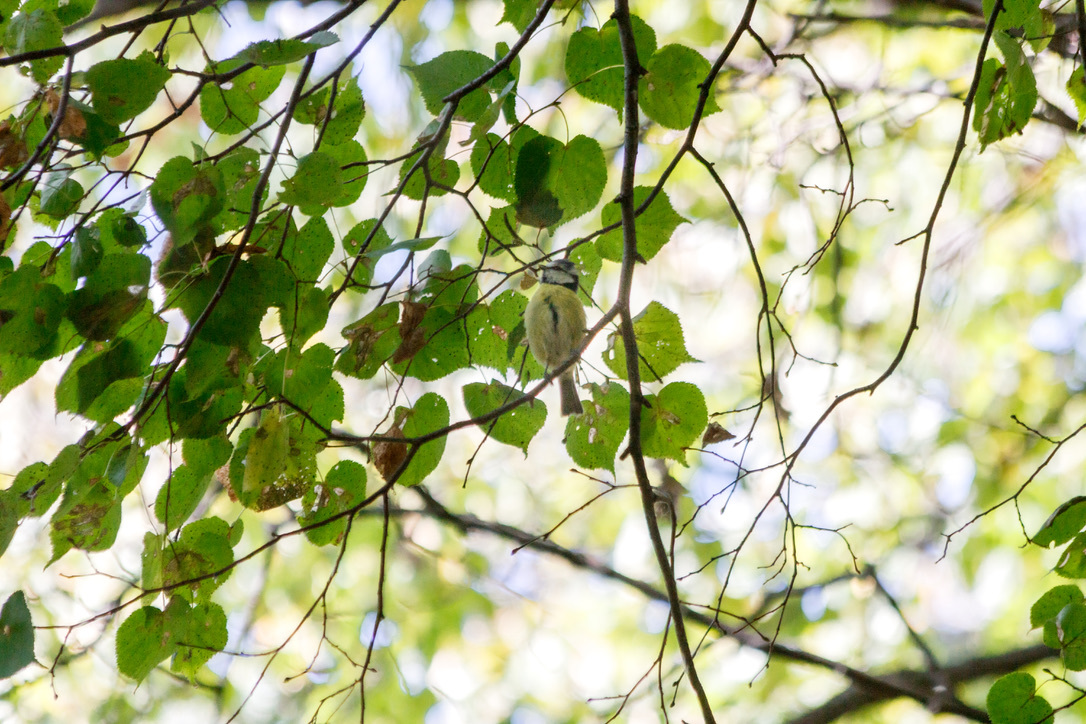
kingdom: Animalia
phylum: Chordata
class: Aves
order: Passeriformes
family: Paridae
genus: Cyanistes
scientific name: Cyanistes caeruleus
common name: Eurasian blue tit
